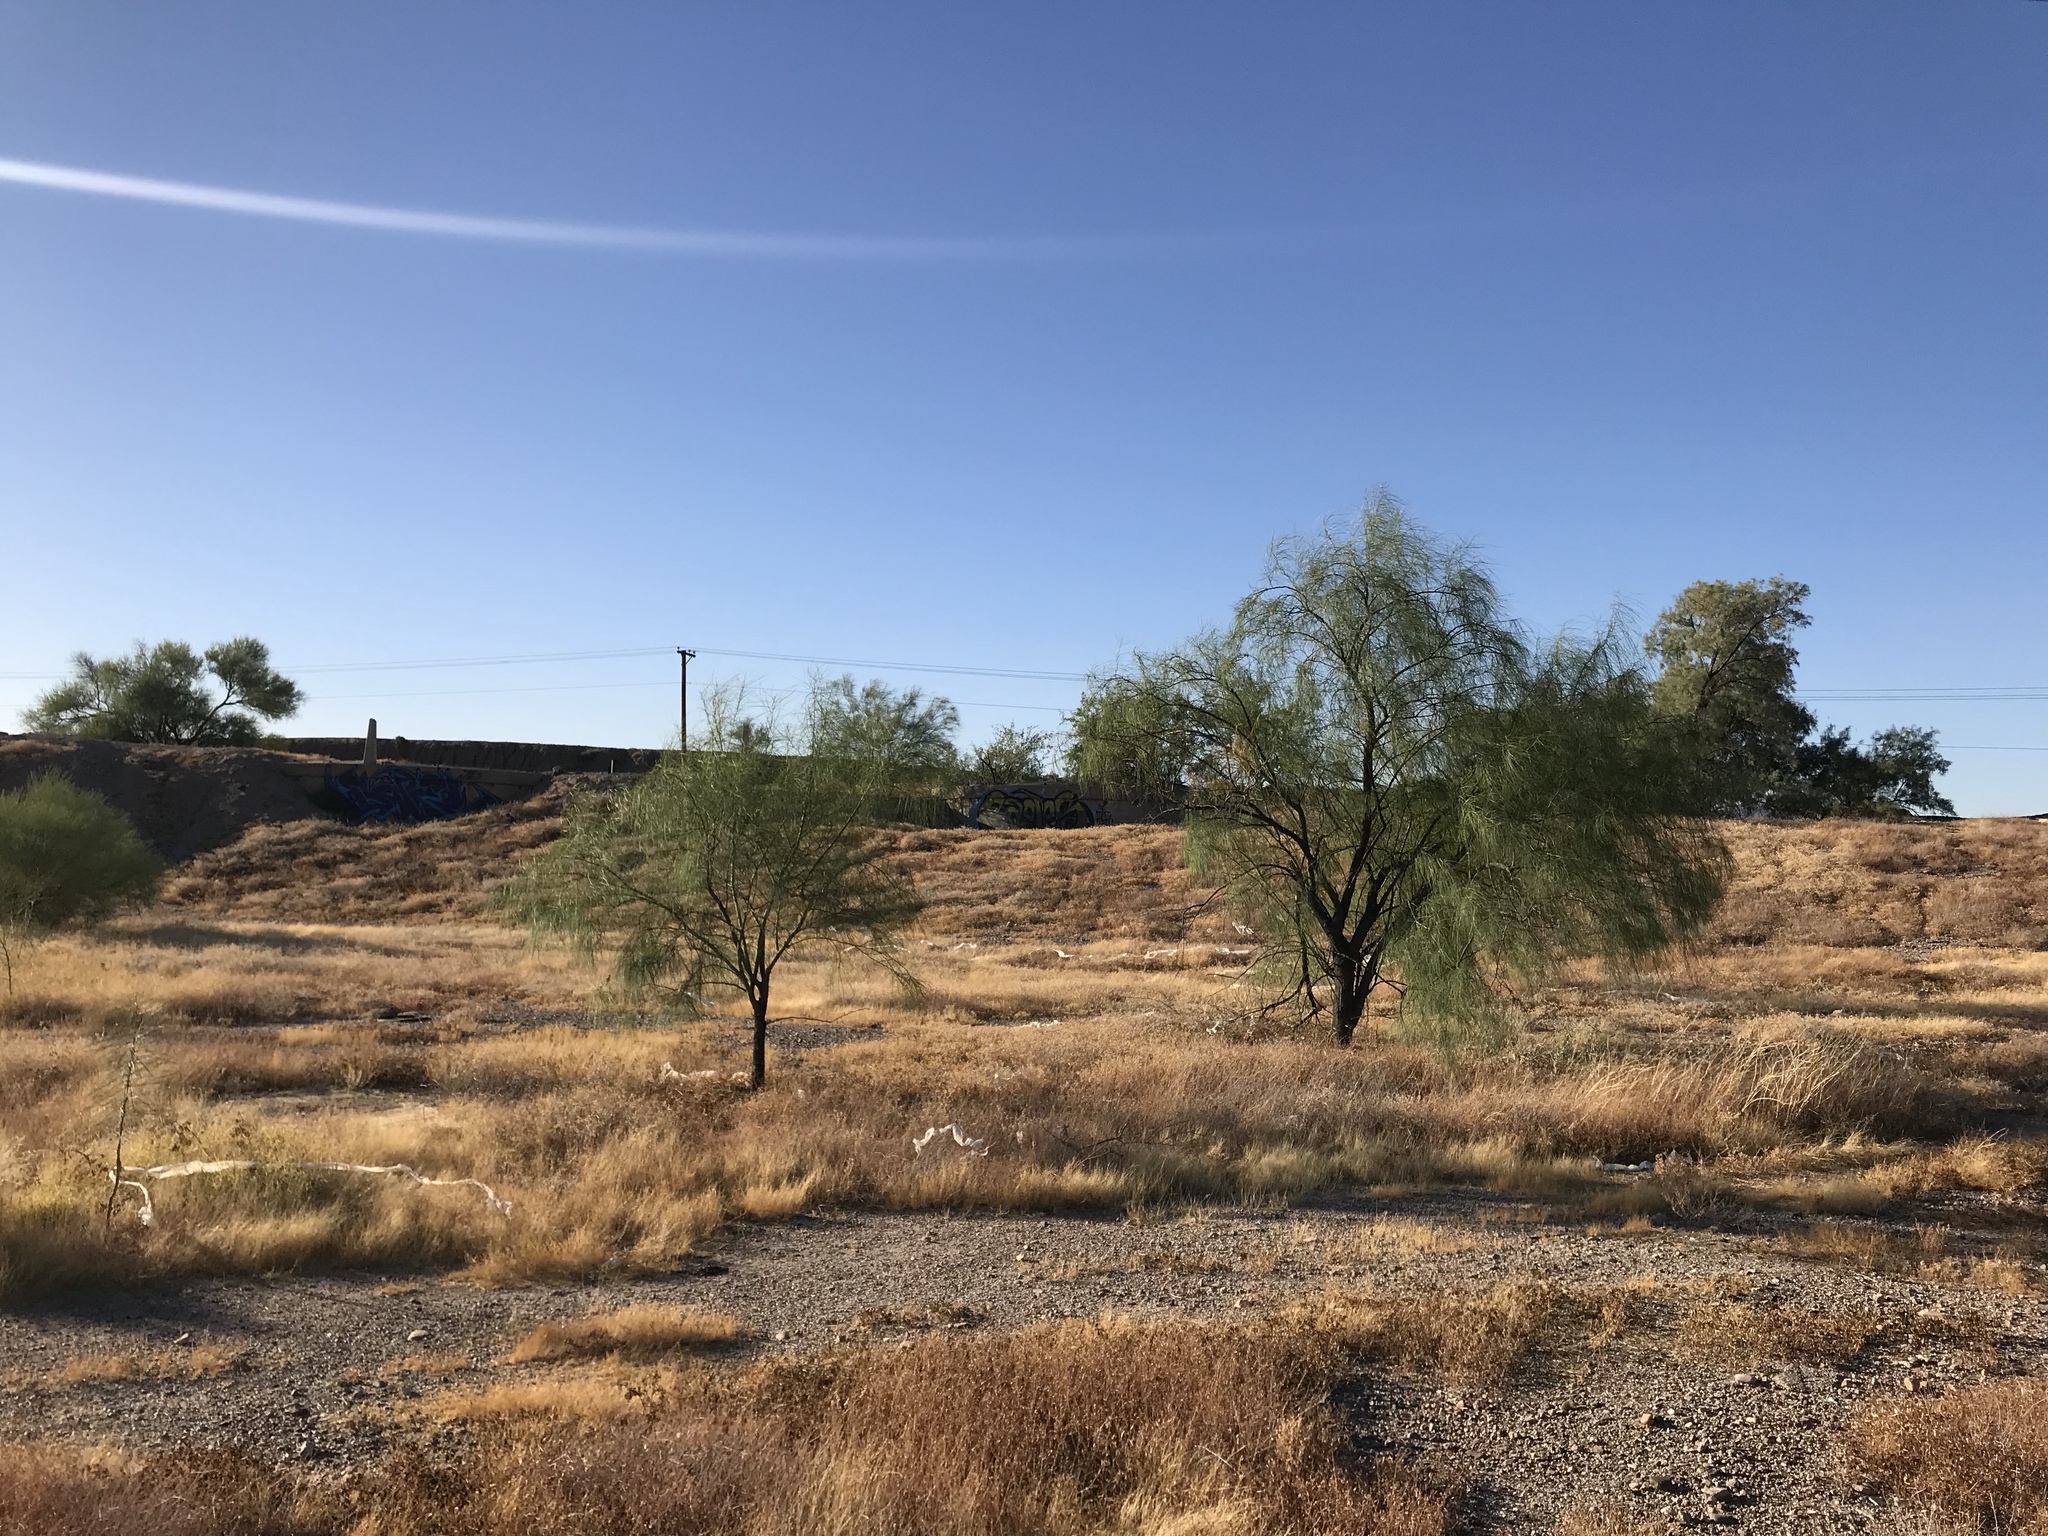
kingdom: Plantae
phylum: Tracheophyta
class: Magnoliopsida
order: Fabales
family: Fabaceae
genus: Parkinsonia
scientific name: Parkinsonia aculeata
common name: Jerusalem thorn
